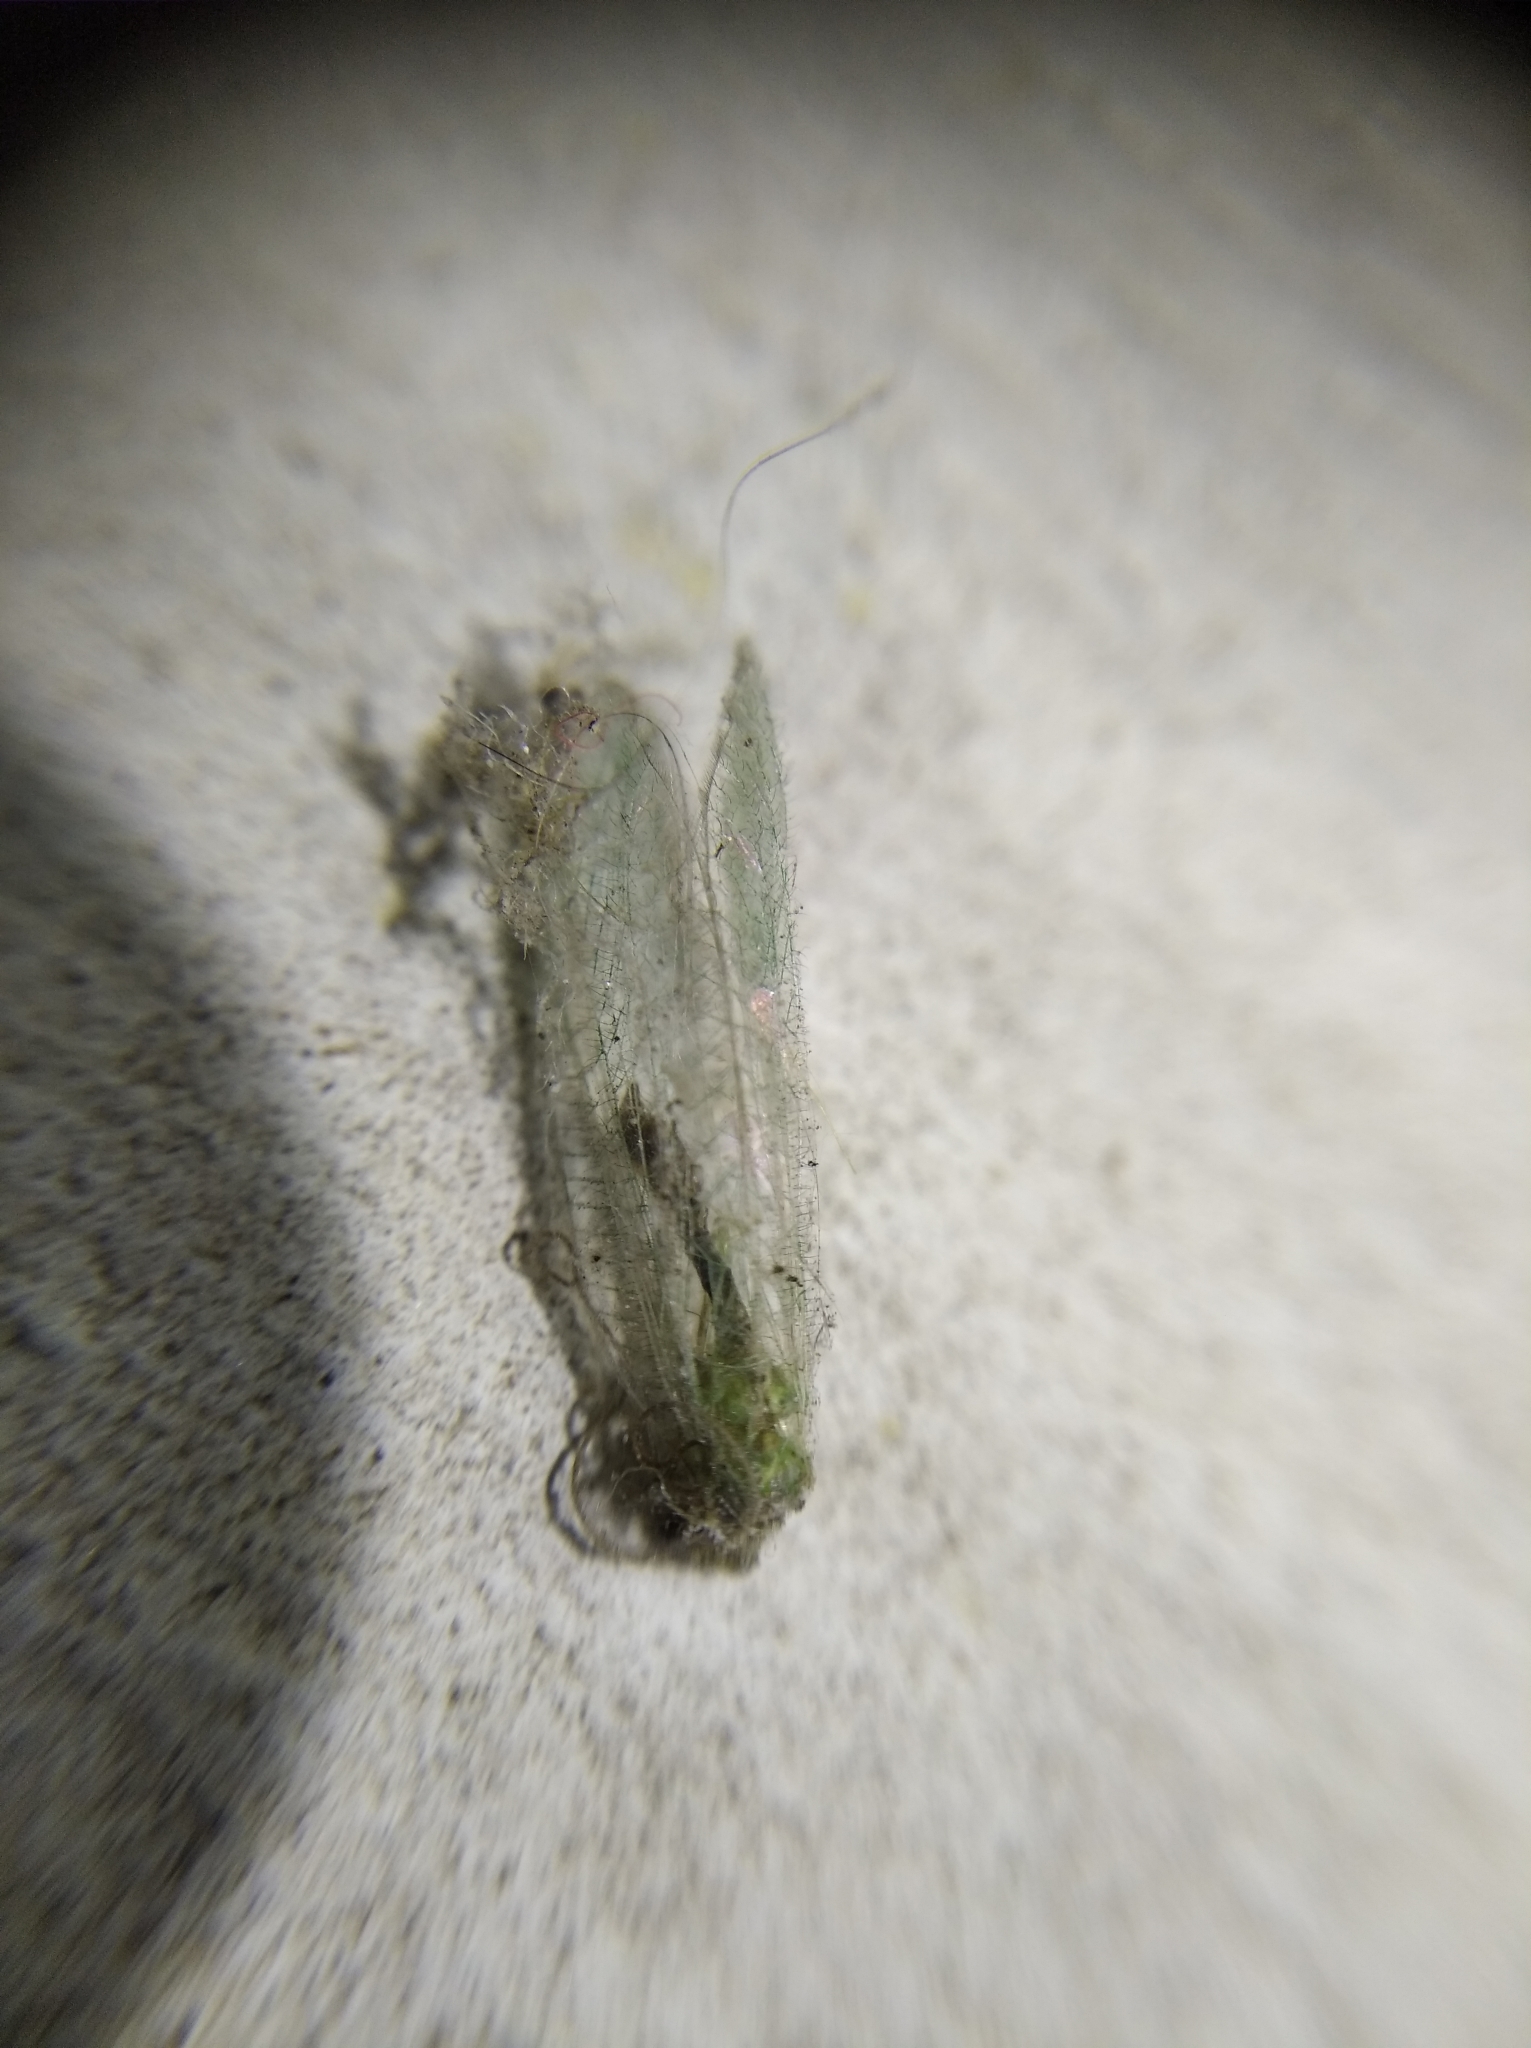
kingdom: Animalia
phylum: Arthropoda
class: Insecta
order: Neuroptera
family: Chrysopidae
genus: Chrysoperla
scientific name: Chrysoperla
